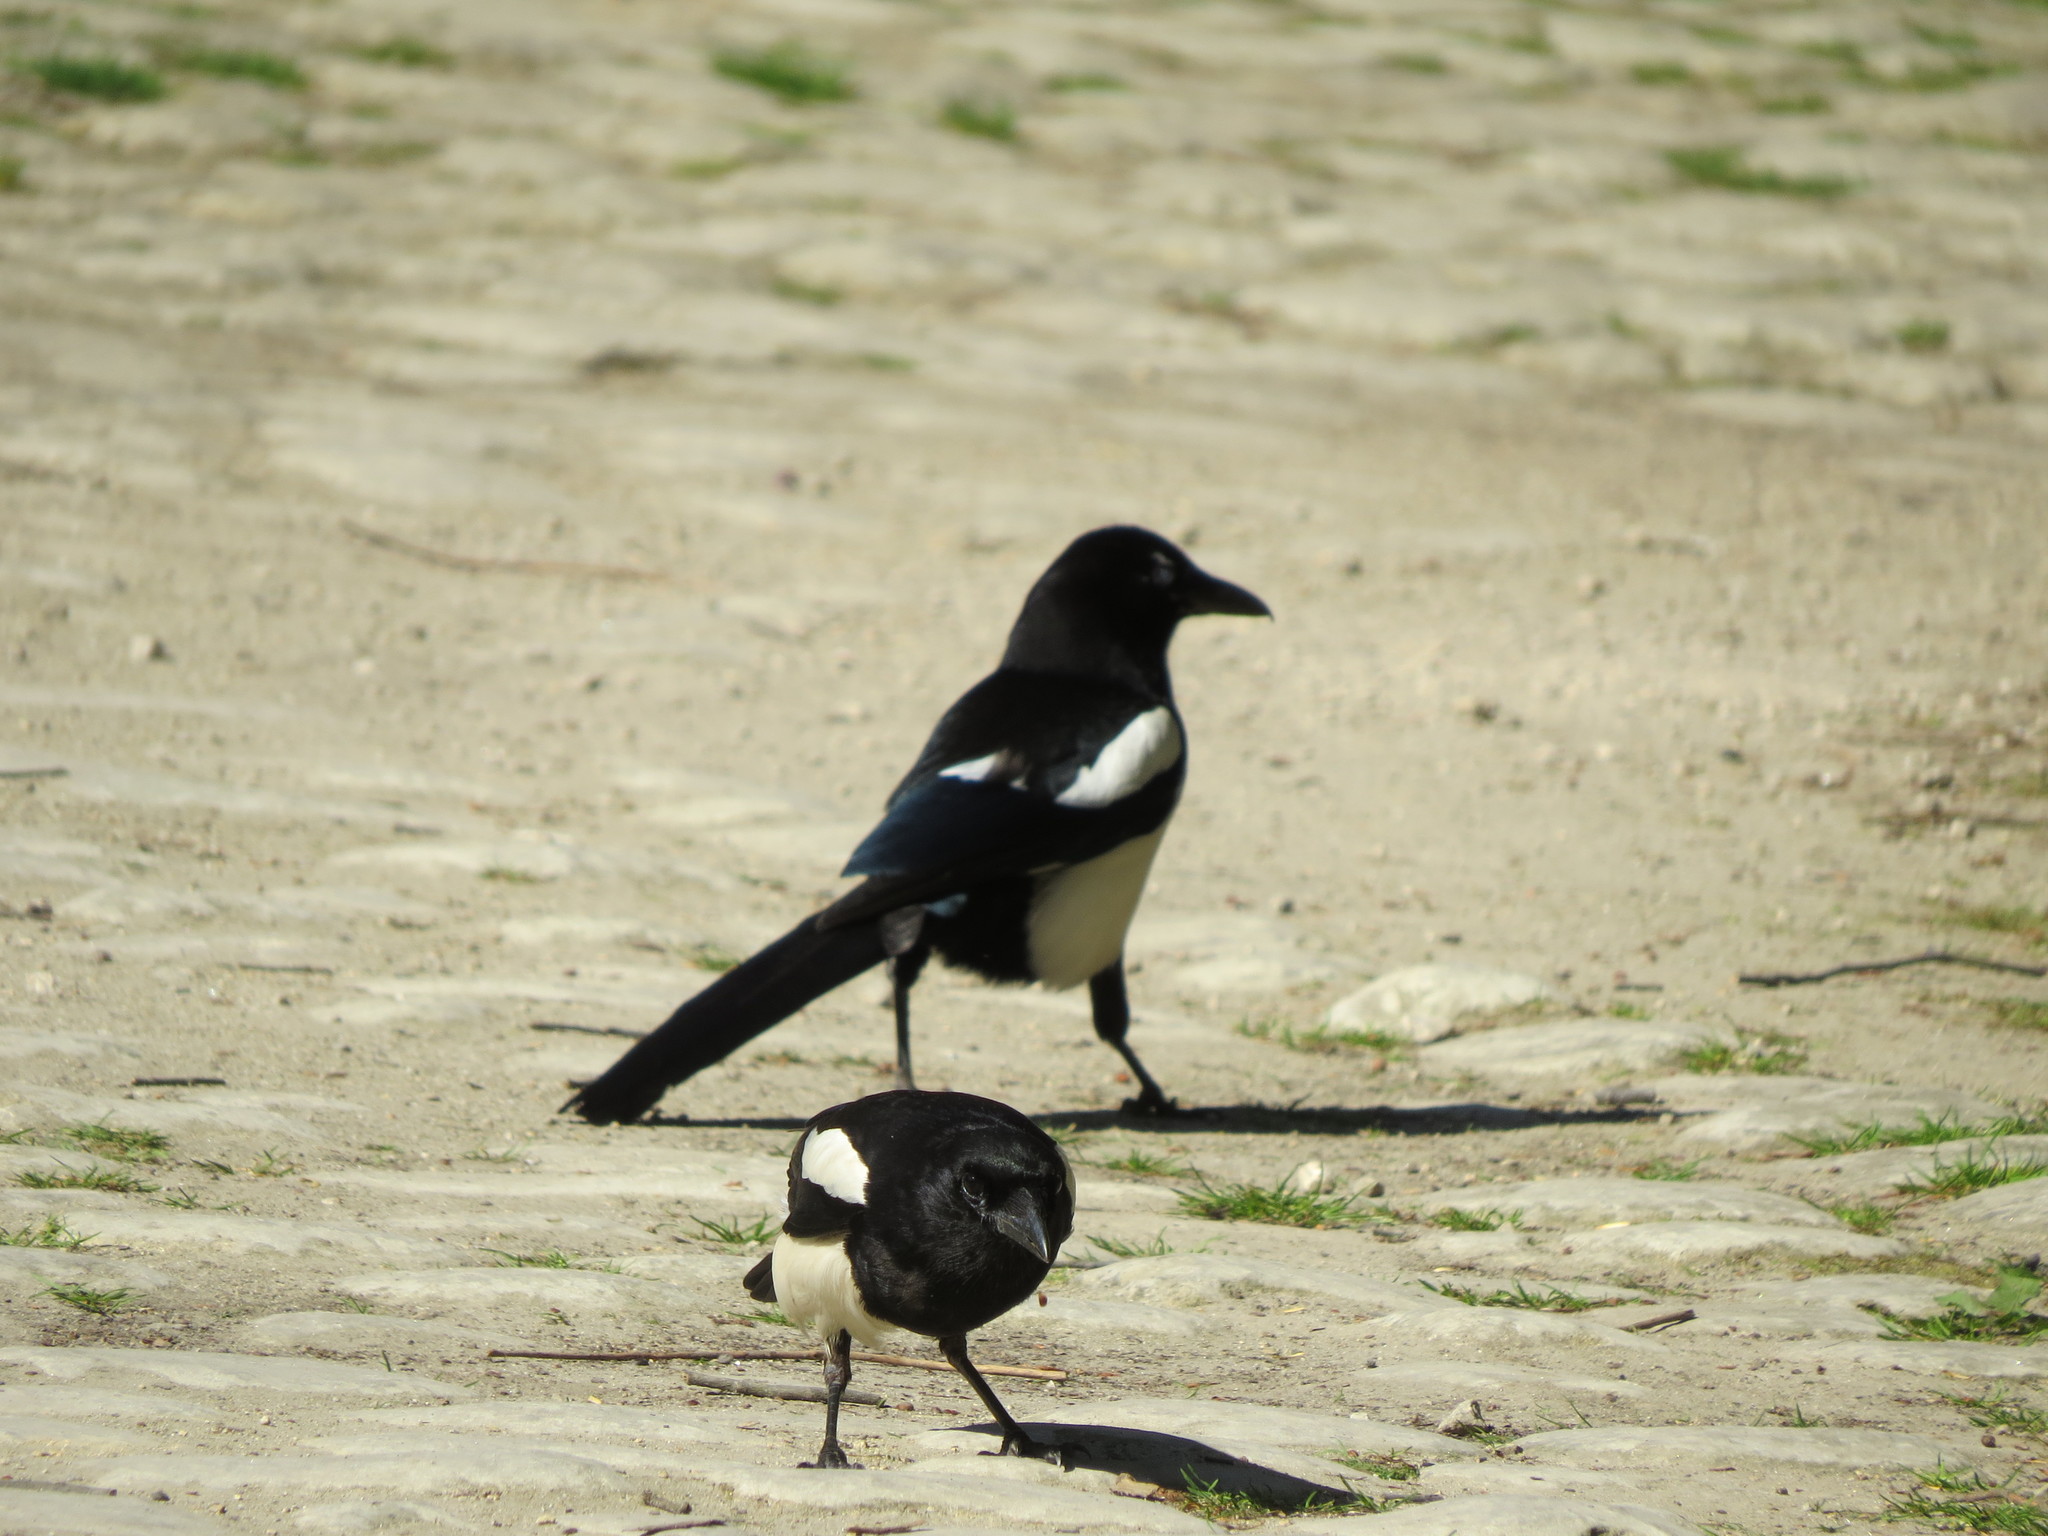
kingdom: Animalia
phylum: Chordata
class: Aves
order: Passeriformes
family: Corvidae
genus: Pica
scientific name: Pica pica
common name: Eurasian magpie
